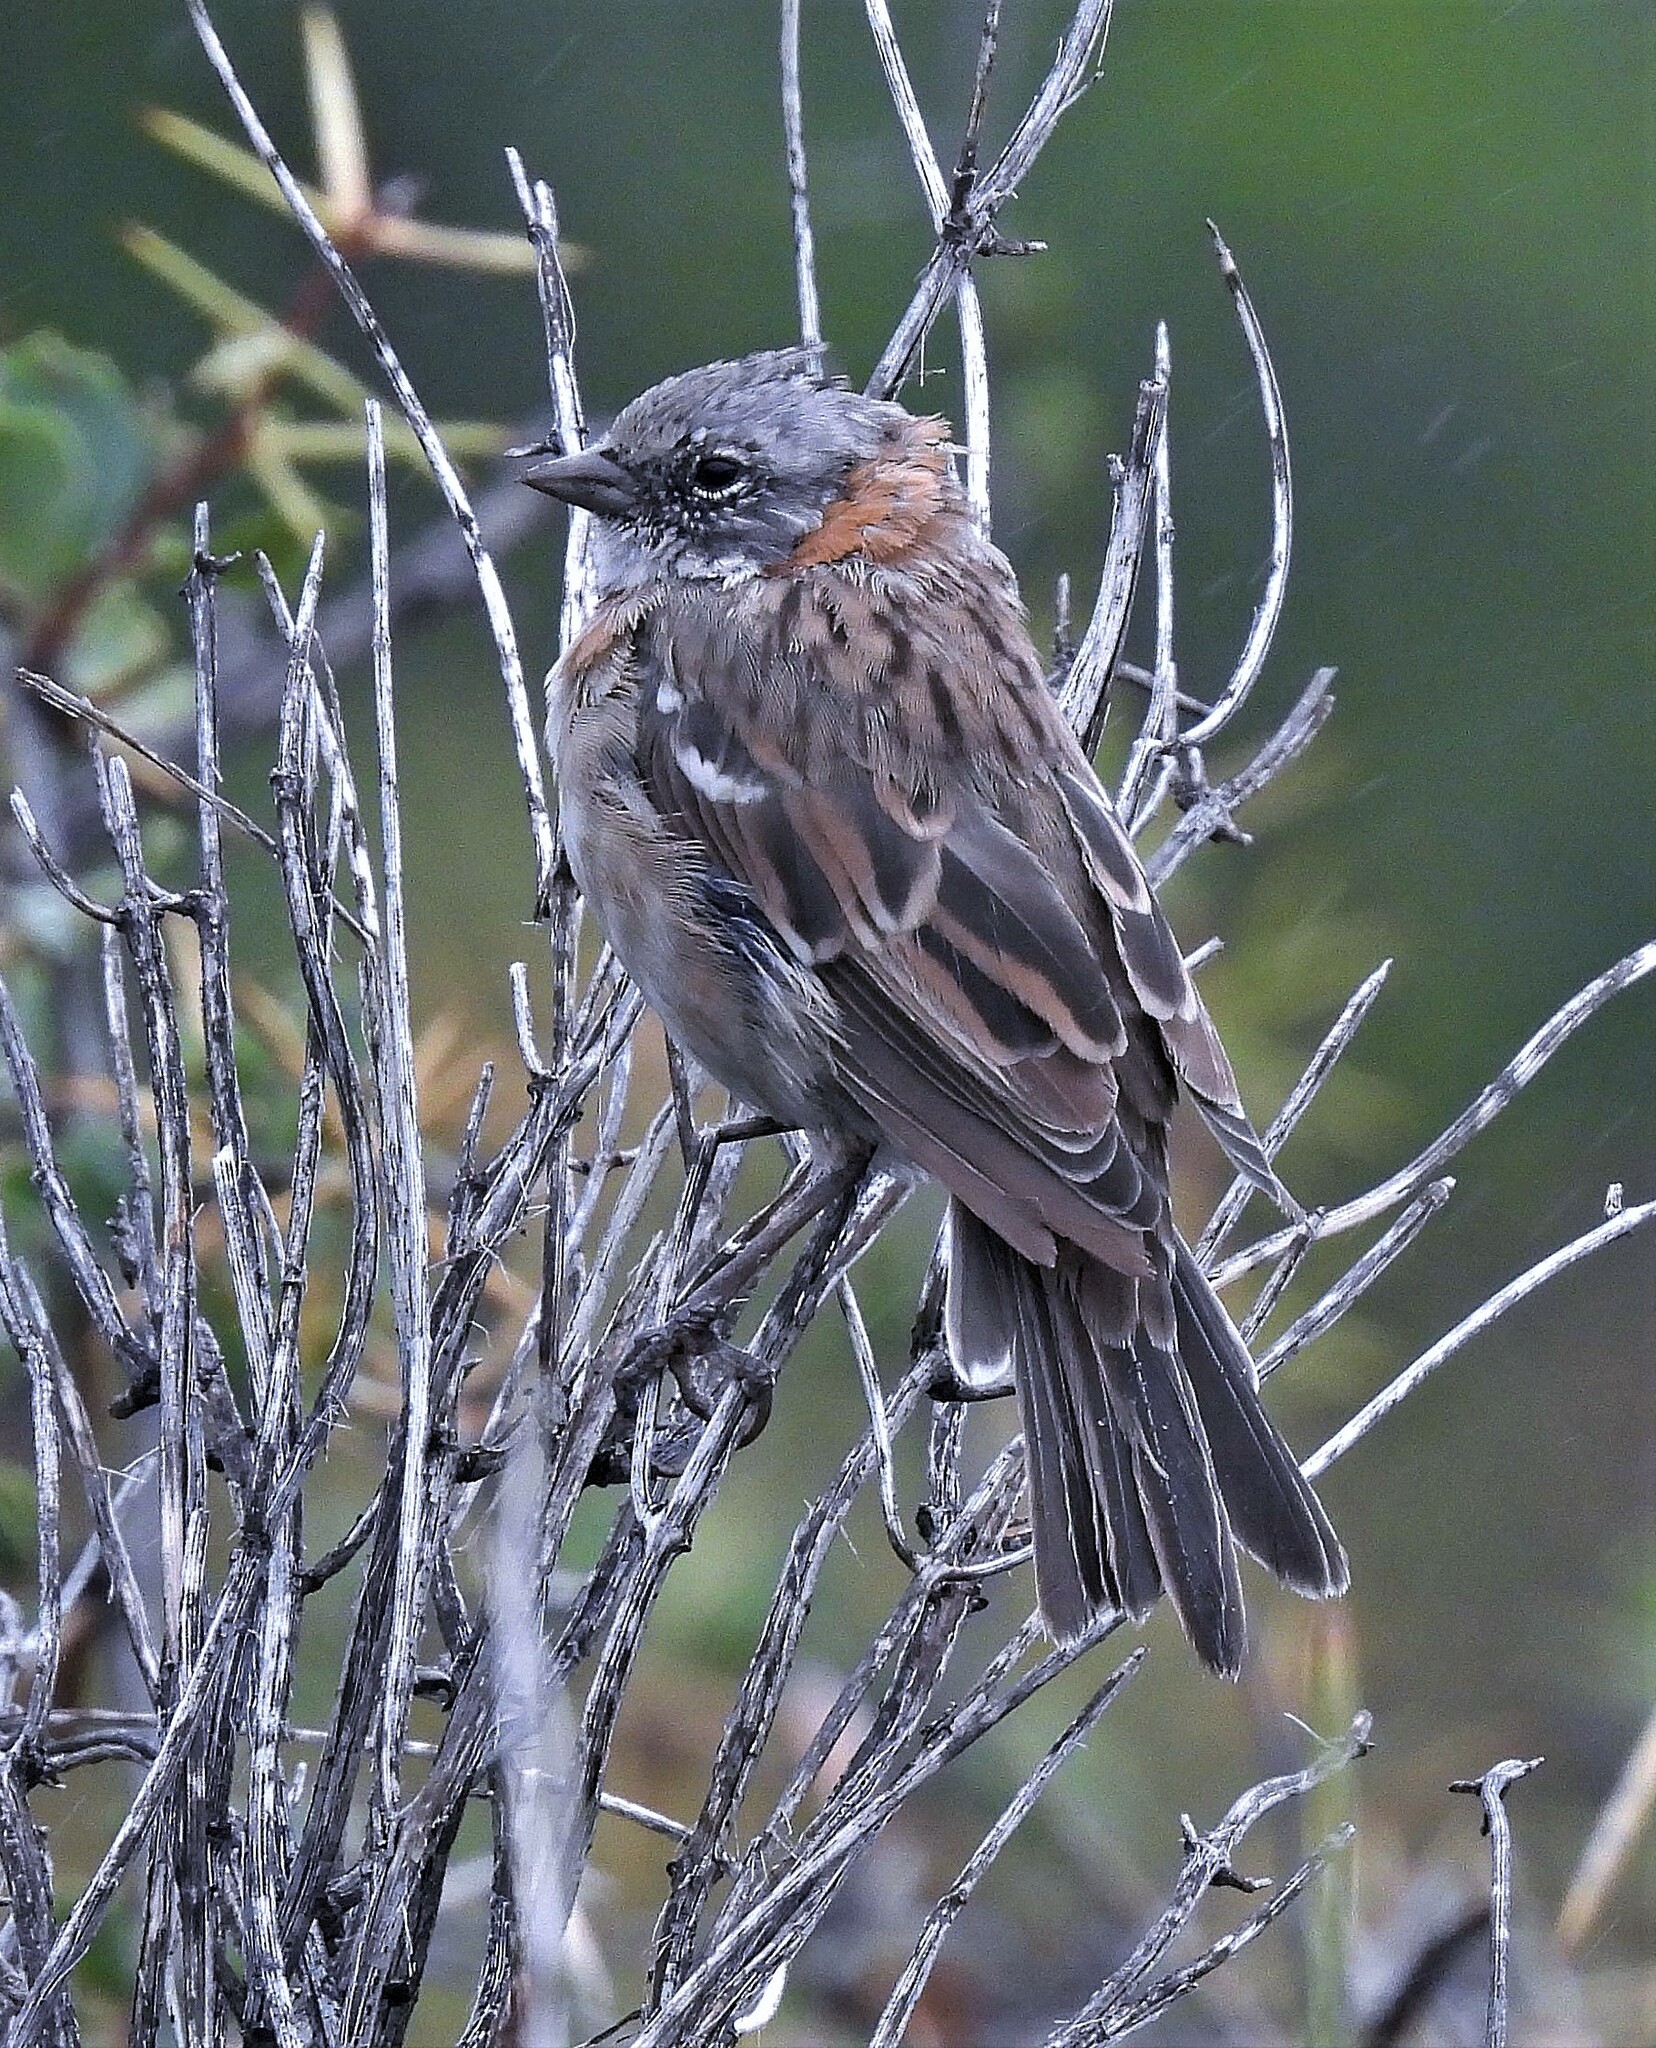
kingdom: Animalia
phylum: Chordata
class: Aves
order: Passeriformes
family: Passerellidae
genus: Zonotrichia
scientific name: Zonotrichia capensis
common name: Rufous-collared sparrow
